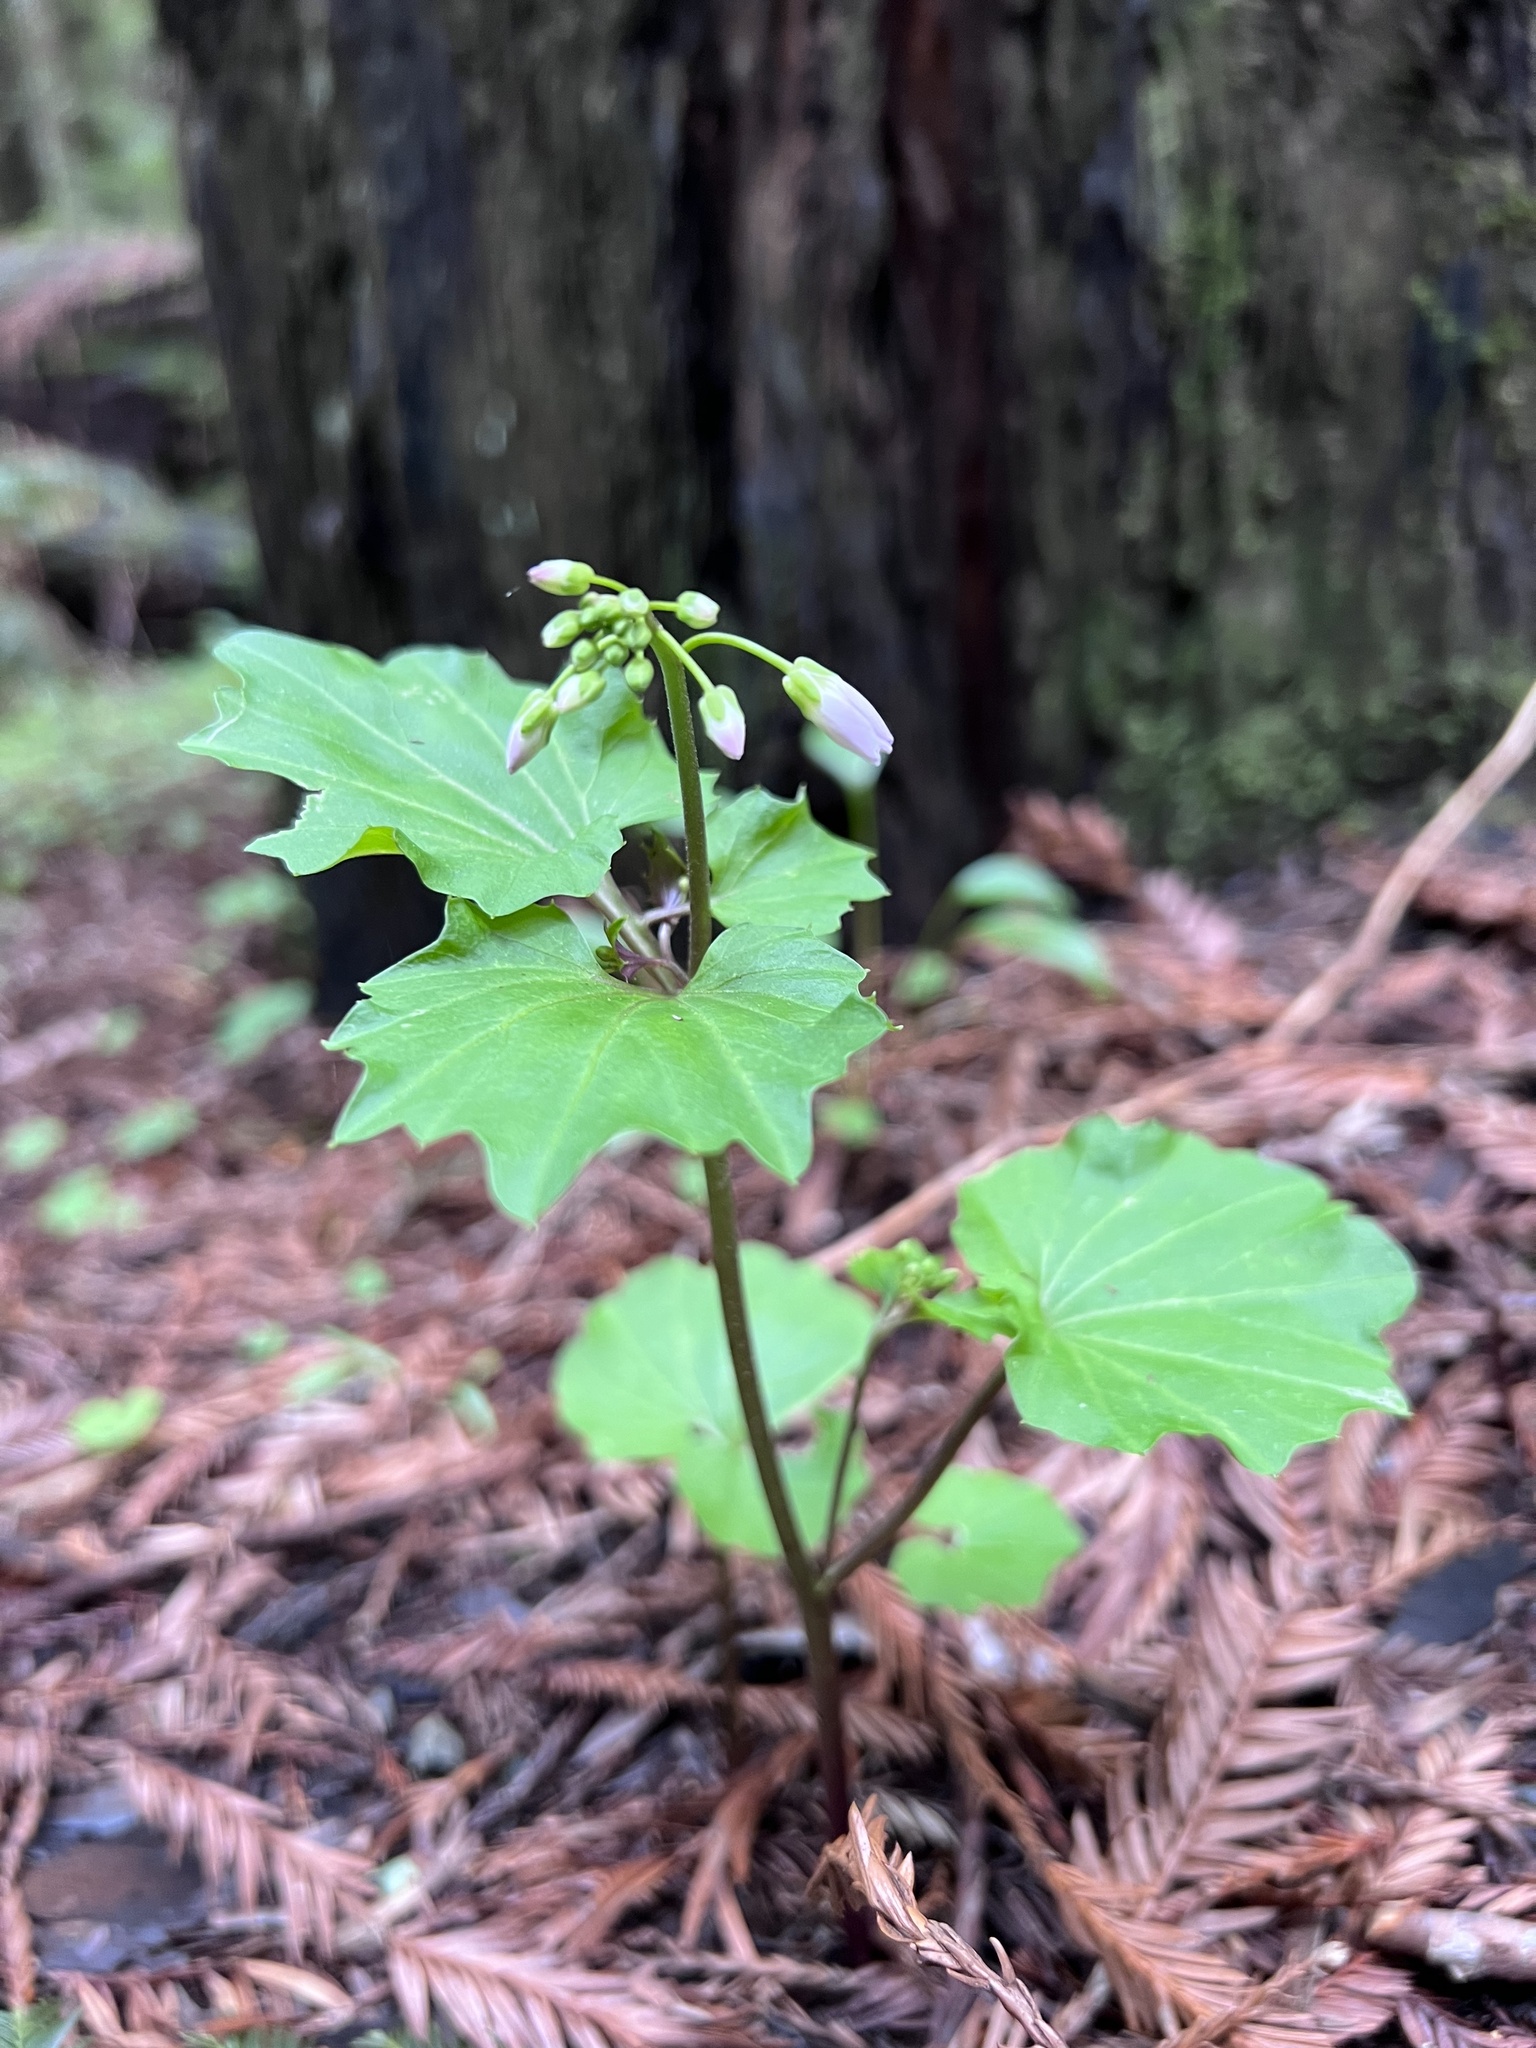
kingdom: Plantae
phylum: Tracheophyta
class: Magnoliopsida
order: Brassicales
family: Brassicaceae
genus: Cardamine
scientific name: Cardamine californica
